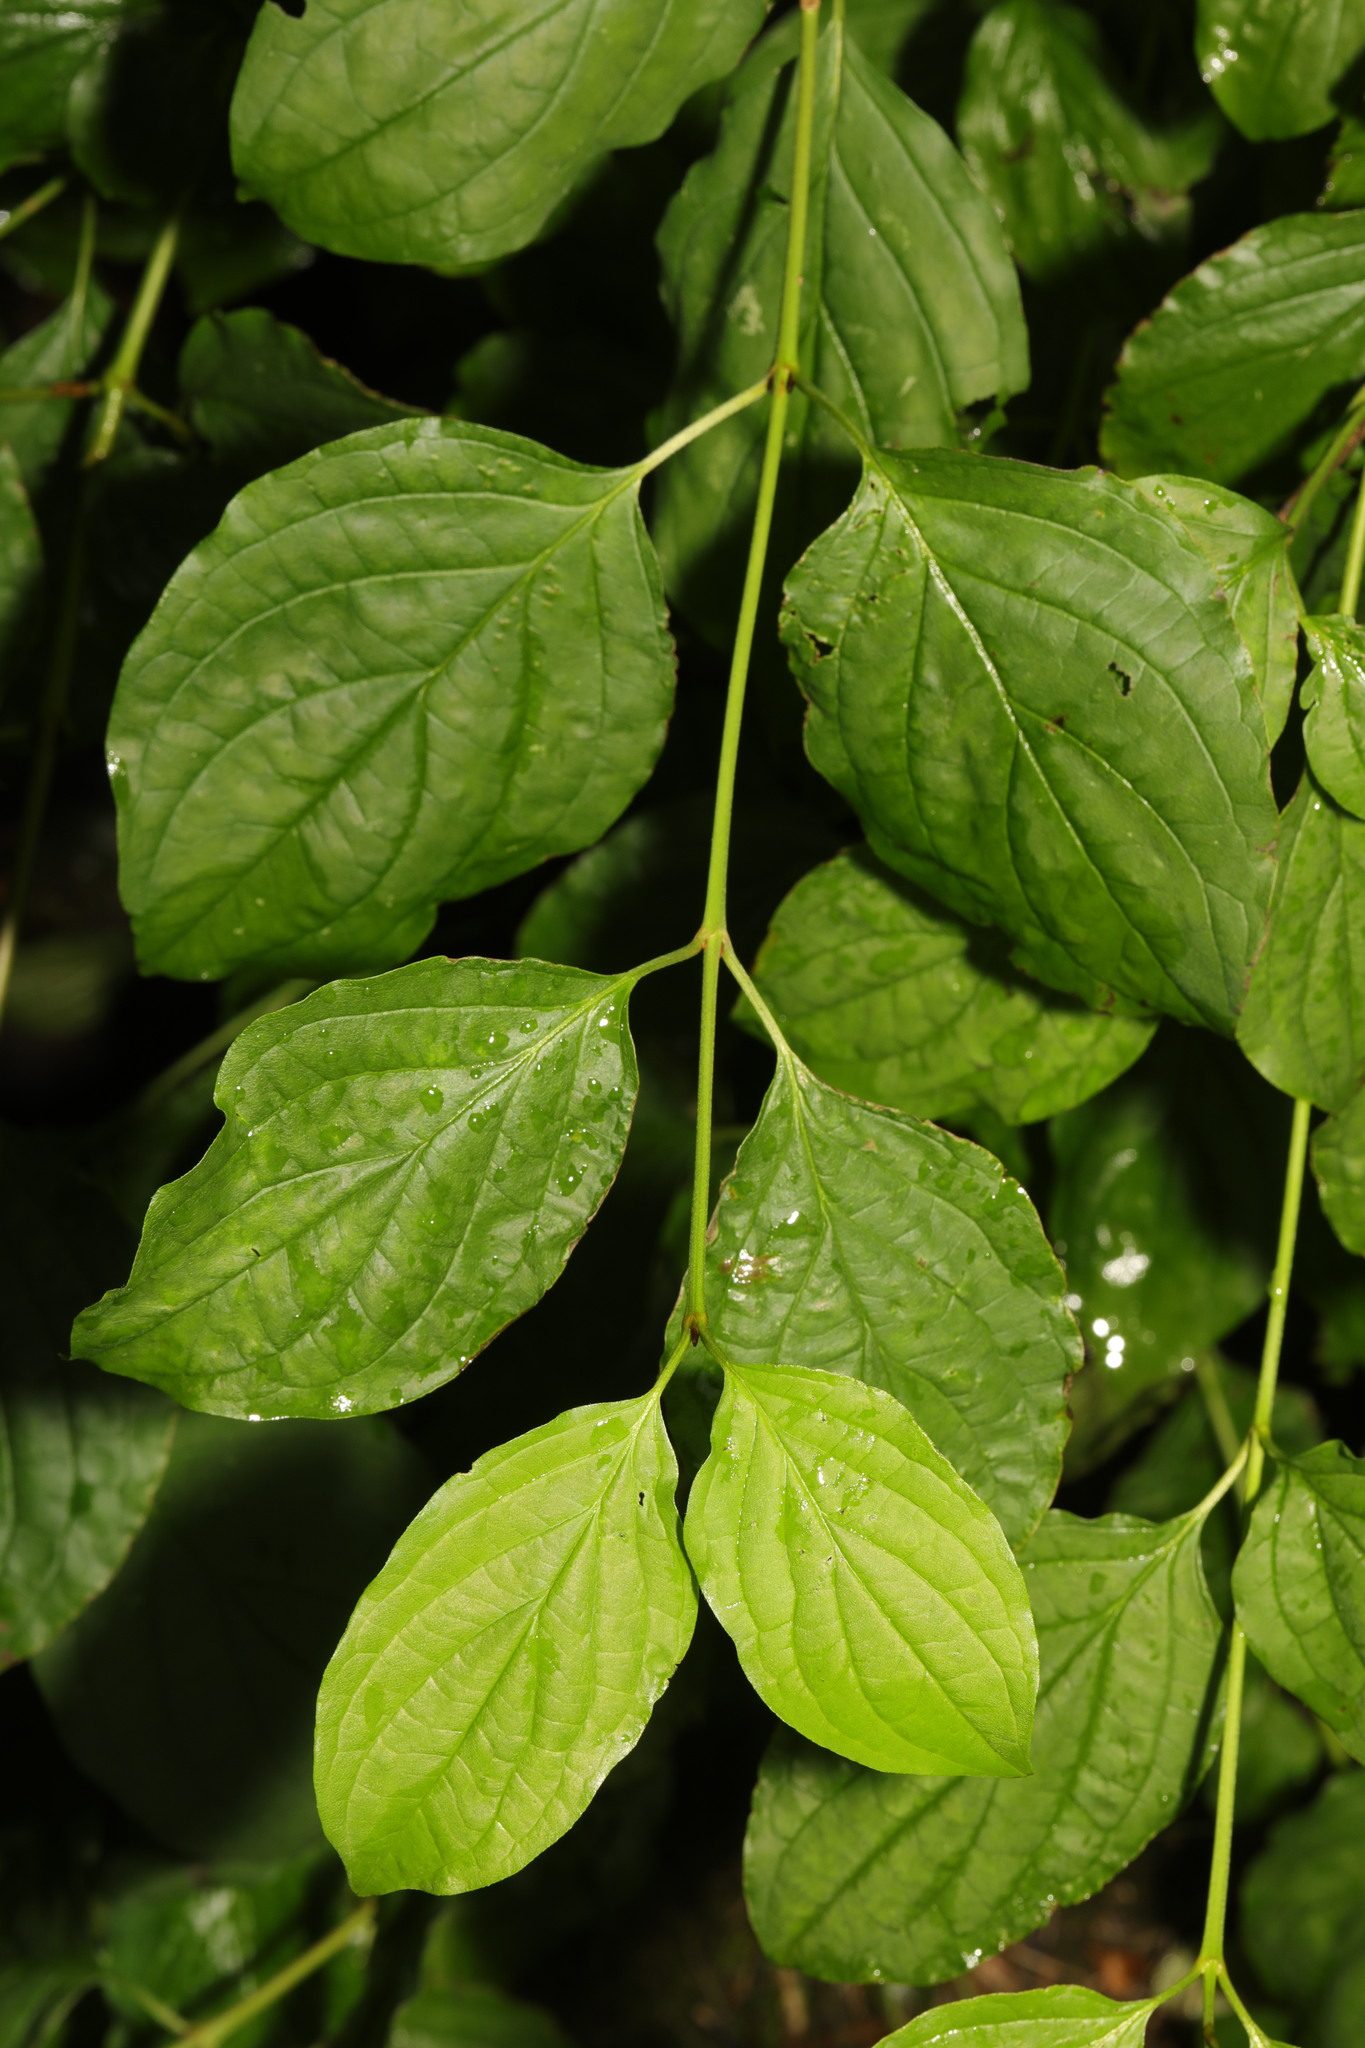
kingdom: Plantae
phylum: Tracheophyta
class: Magnoliopsida
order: Cornales
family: Cornaceae
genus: Cornus
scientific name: Cornus sanguinea
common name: Dogwood
